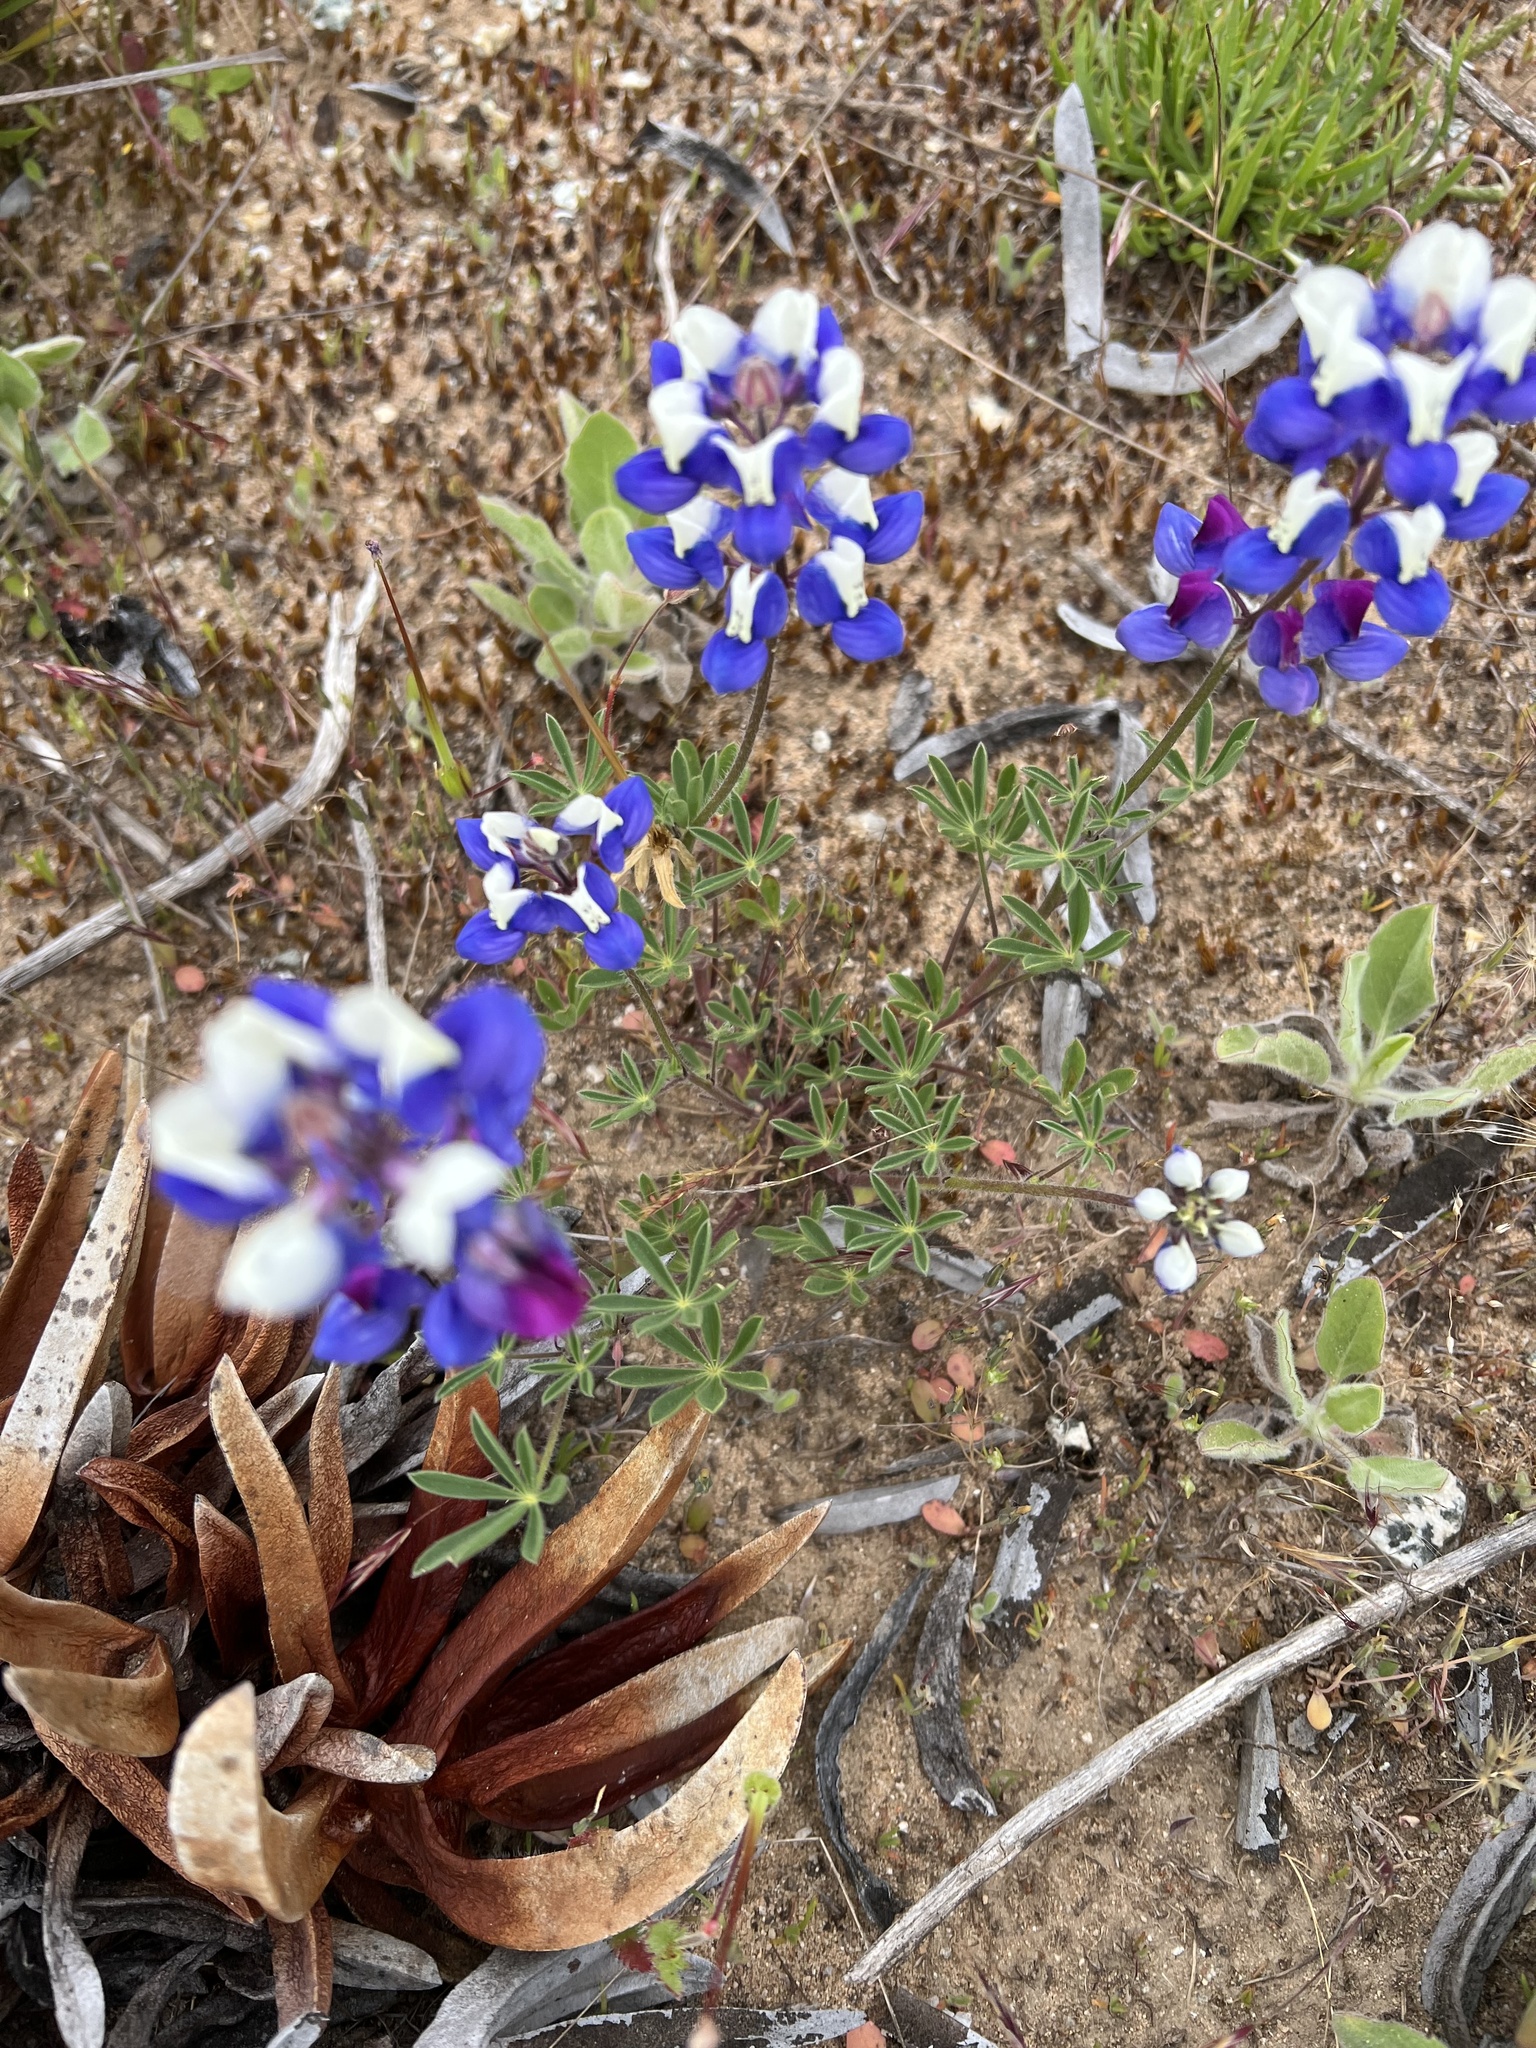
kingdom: Plantae
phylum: Tracheophyta
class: Magnoliopsida
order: Fabales
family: Fabaceae
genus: Lupinus
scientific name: Lupinus nanus
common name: Orean blue lupin
